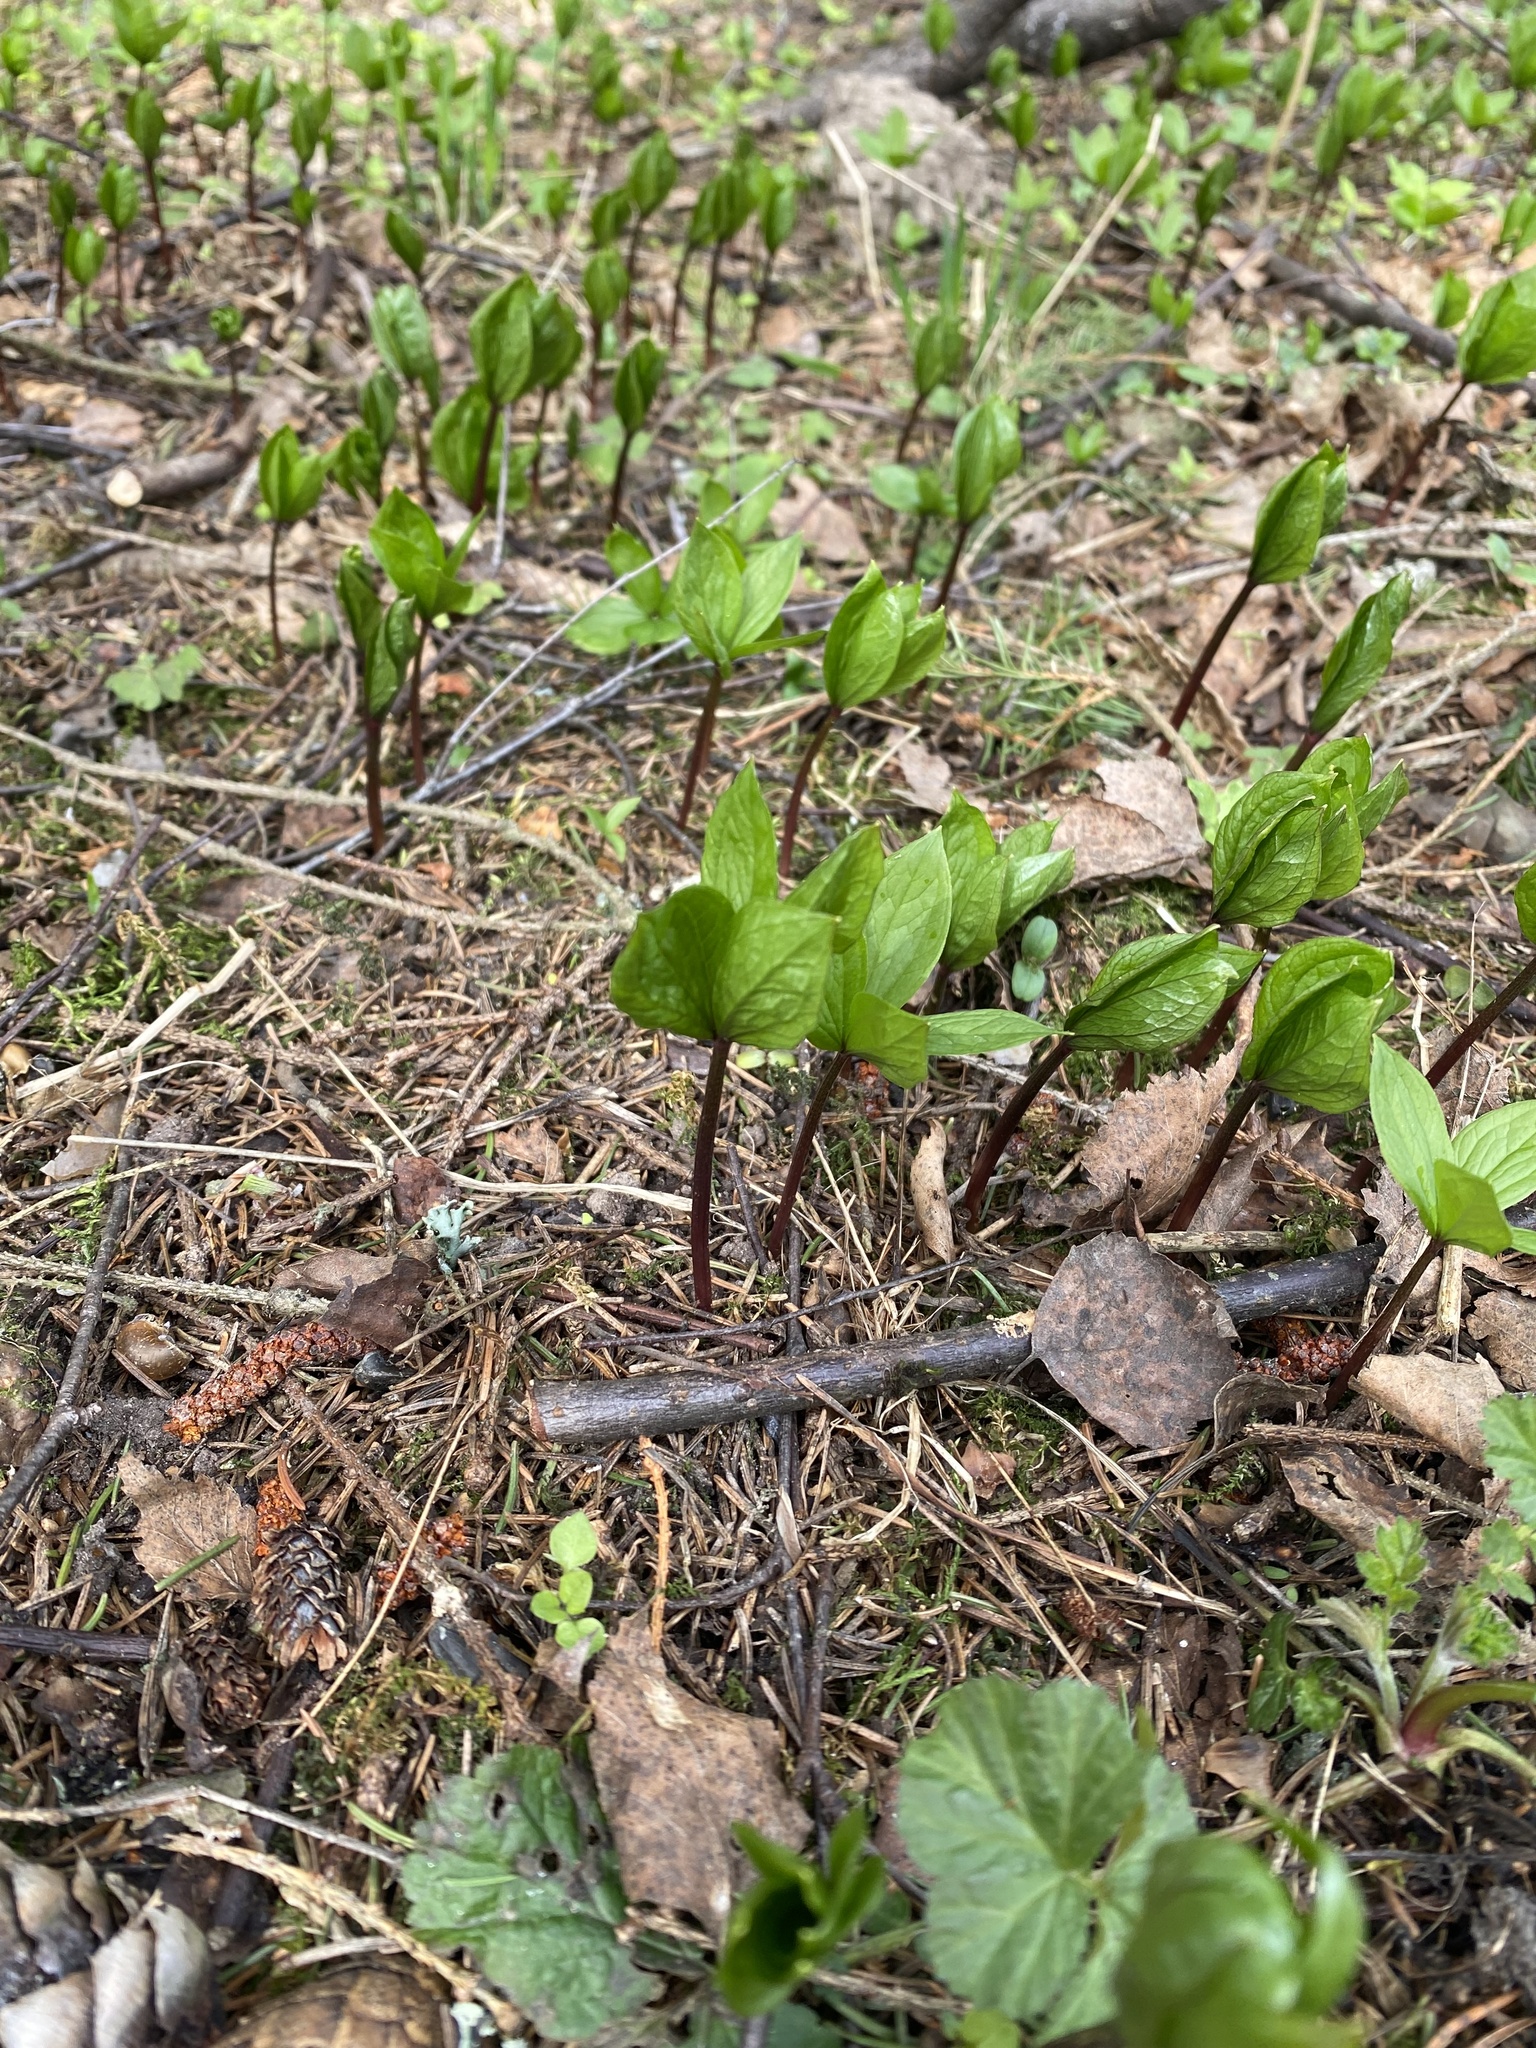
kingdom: Plantae
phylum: Tracheophyta
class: Liliopsida
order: Liliales
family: Melanthiaceae
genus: Paris
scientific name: Paris quadrifolia
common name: Herb-paris
